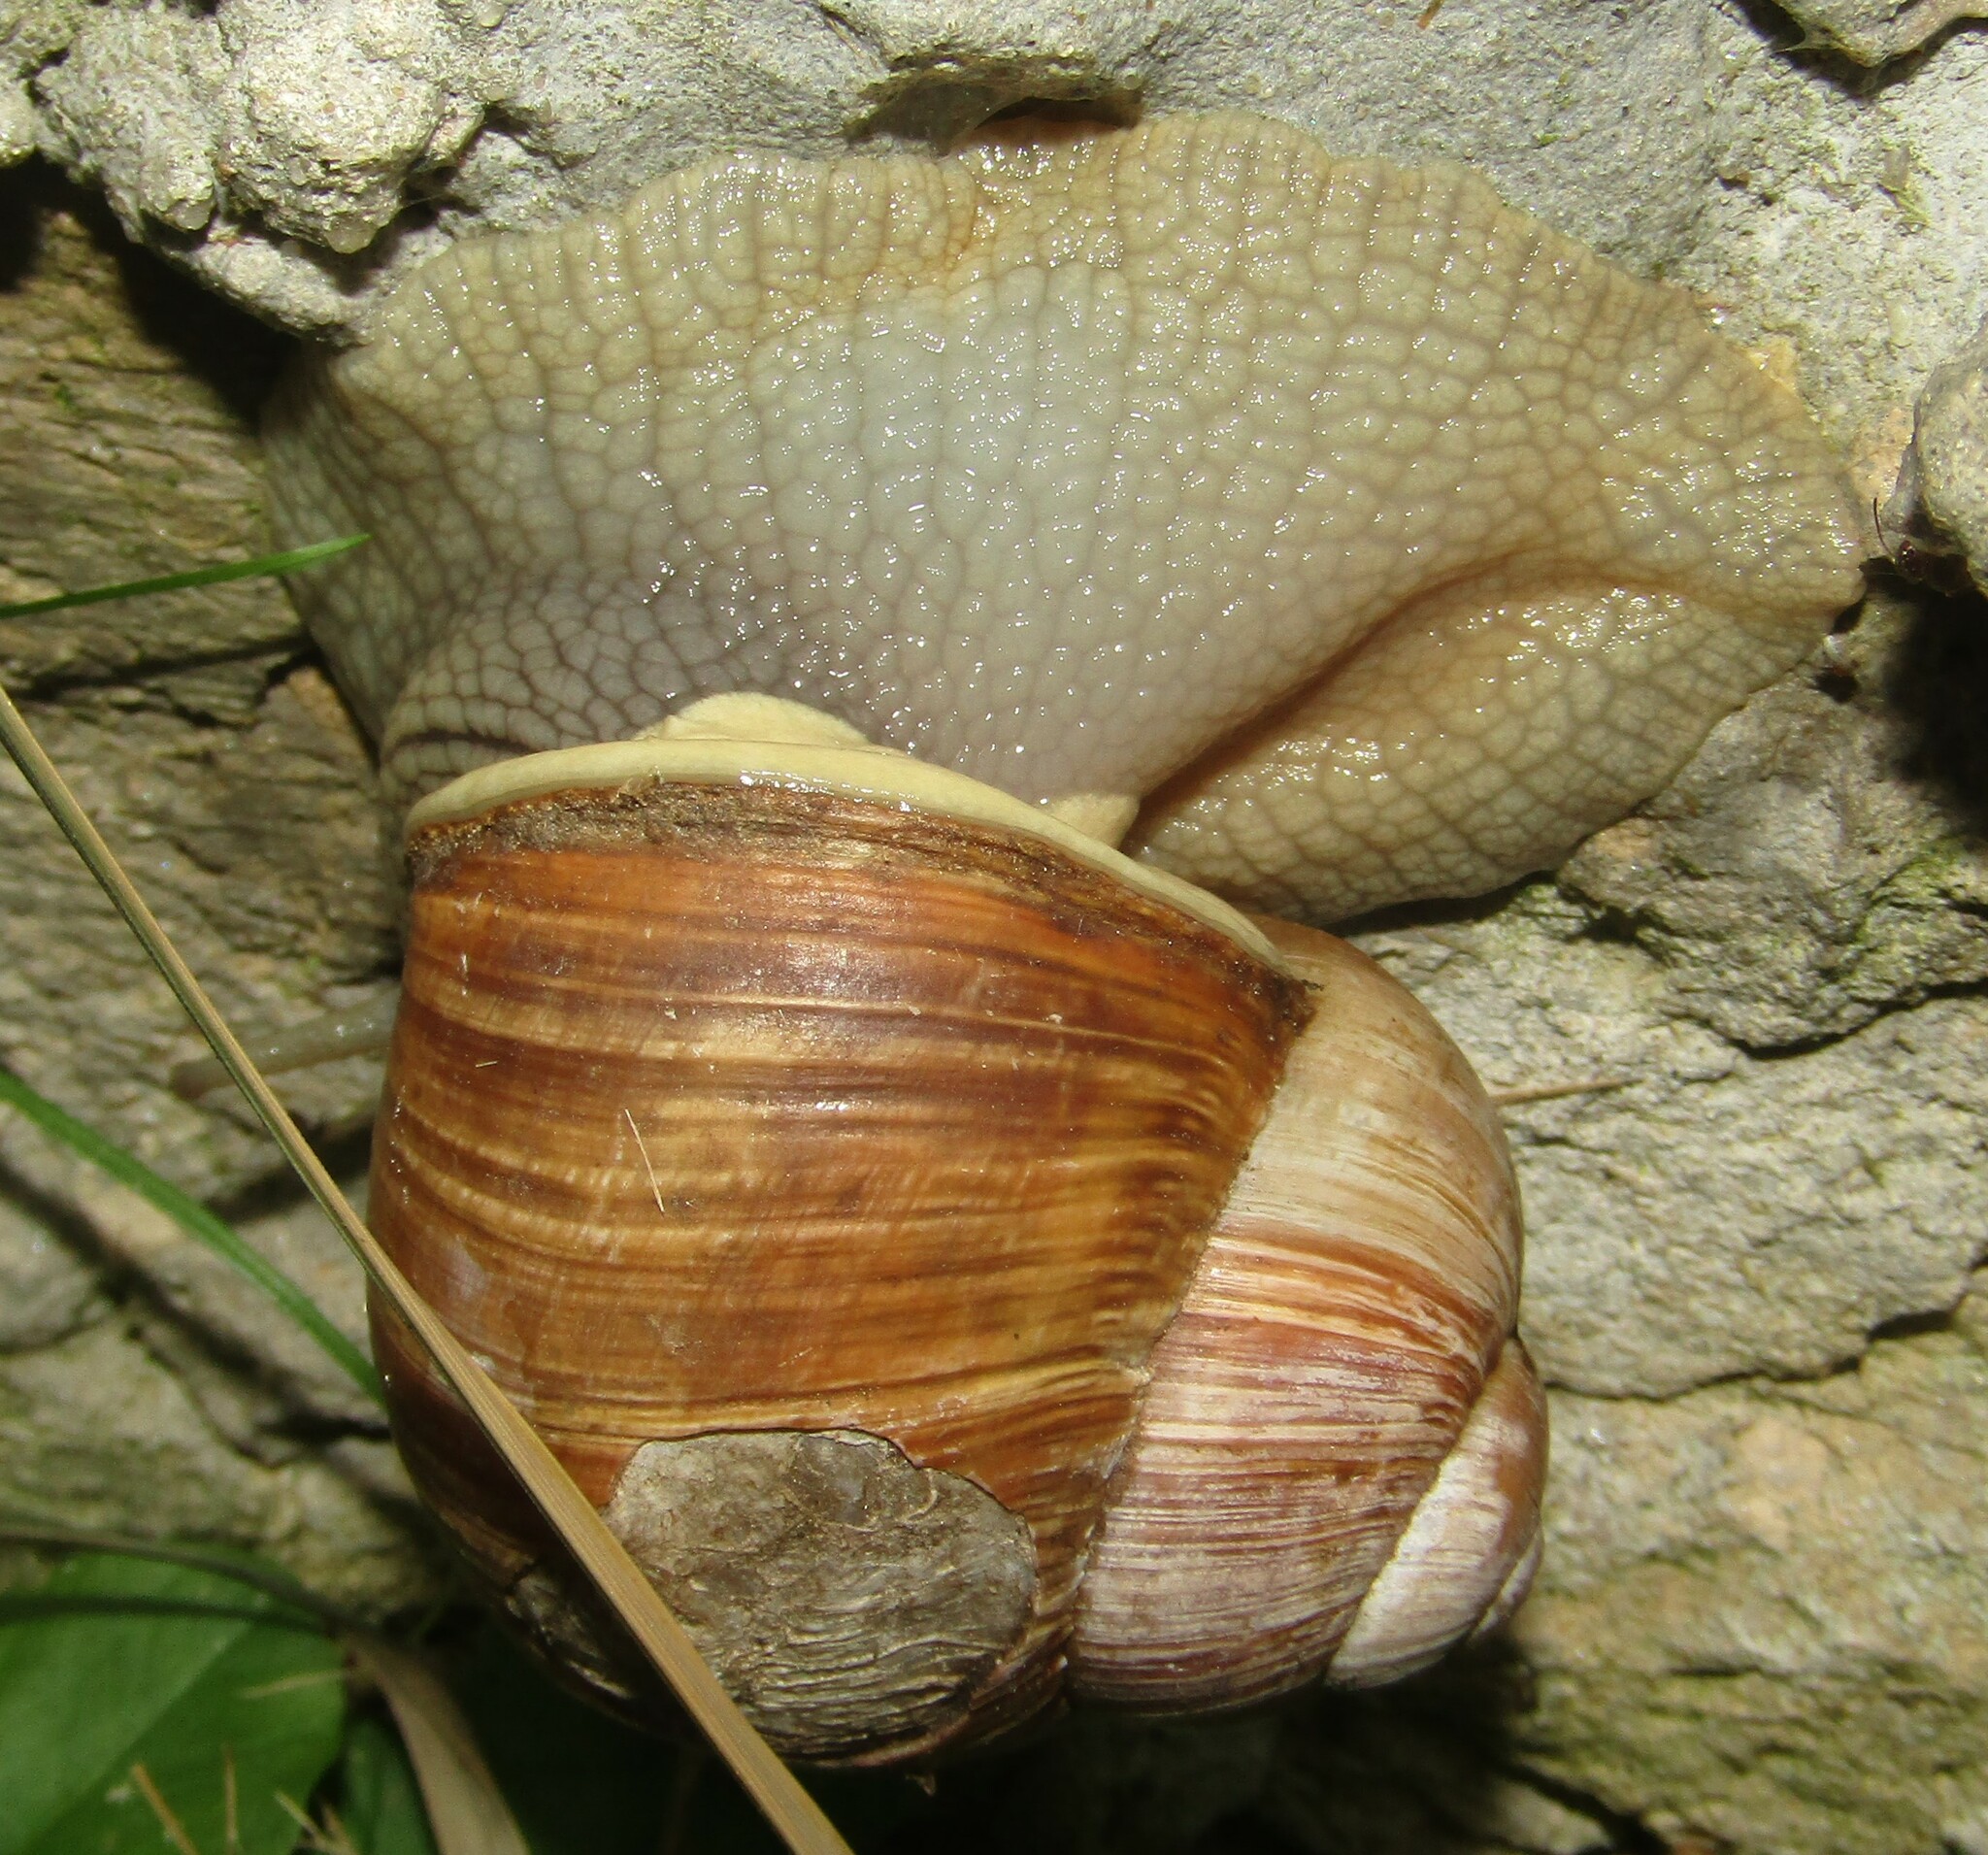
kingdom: Animalia
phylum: Mollusca
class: Gastropoda
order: Stylommatophora
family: Helicidae
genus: Helix
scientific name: Helix pomatia
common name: Roman snail
